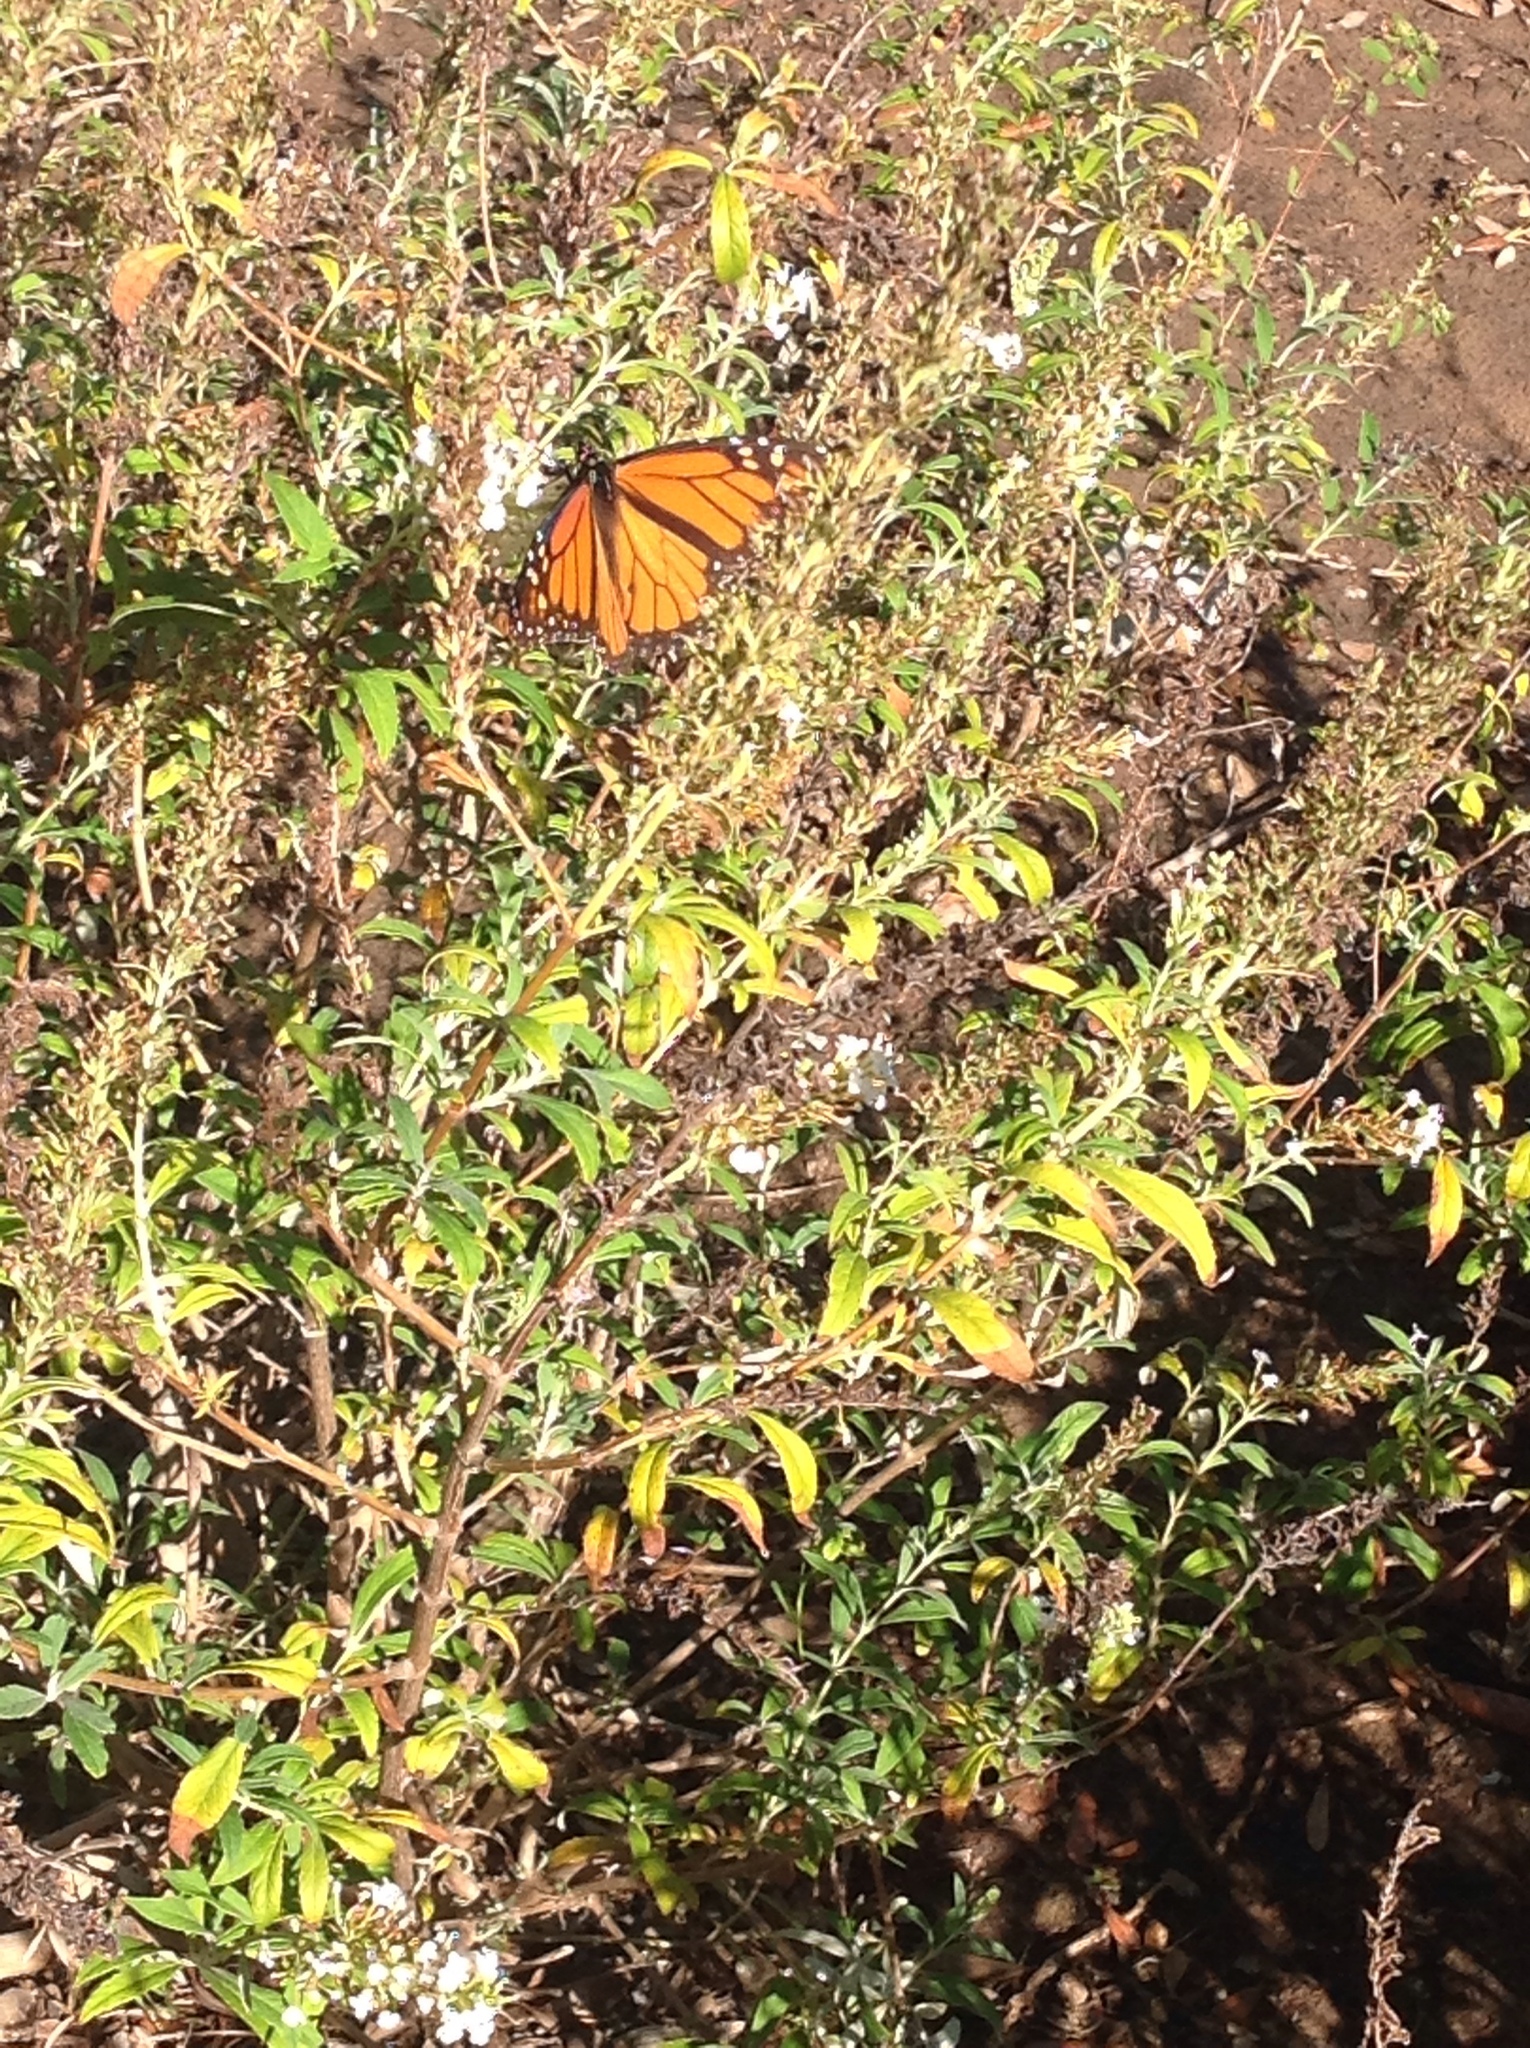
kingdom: Animalia
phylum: Arthropoda
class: Insecta
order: Lepidoptera
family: Nymphalidae
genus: Danaus
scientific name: Danaus plexippus
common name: Monarch
